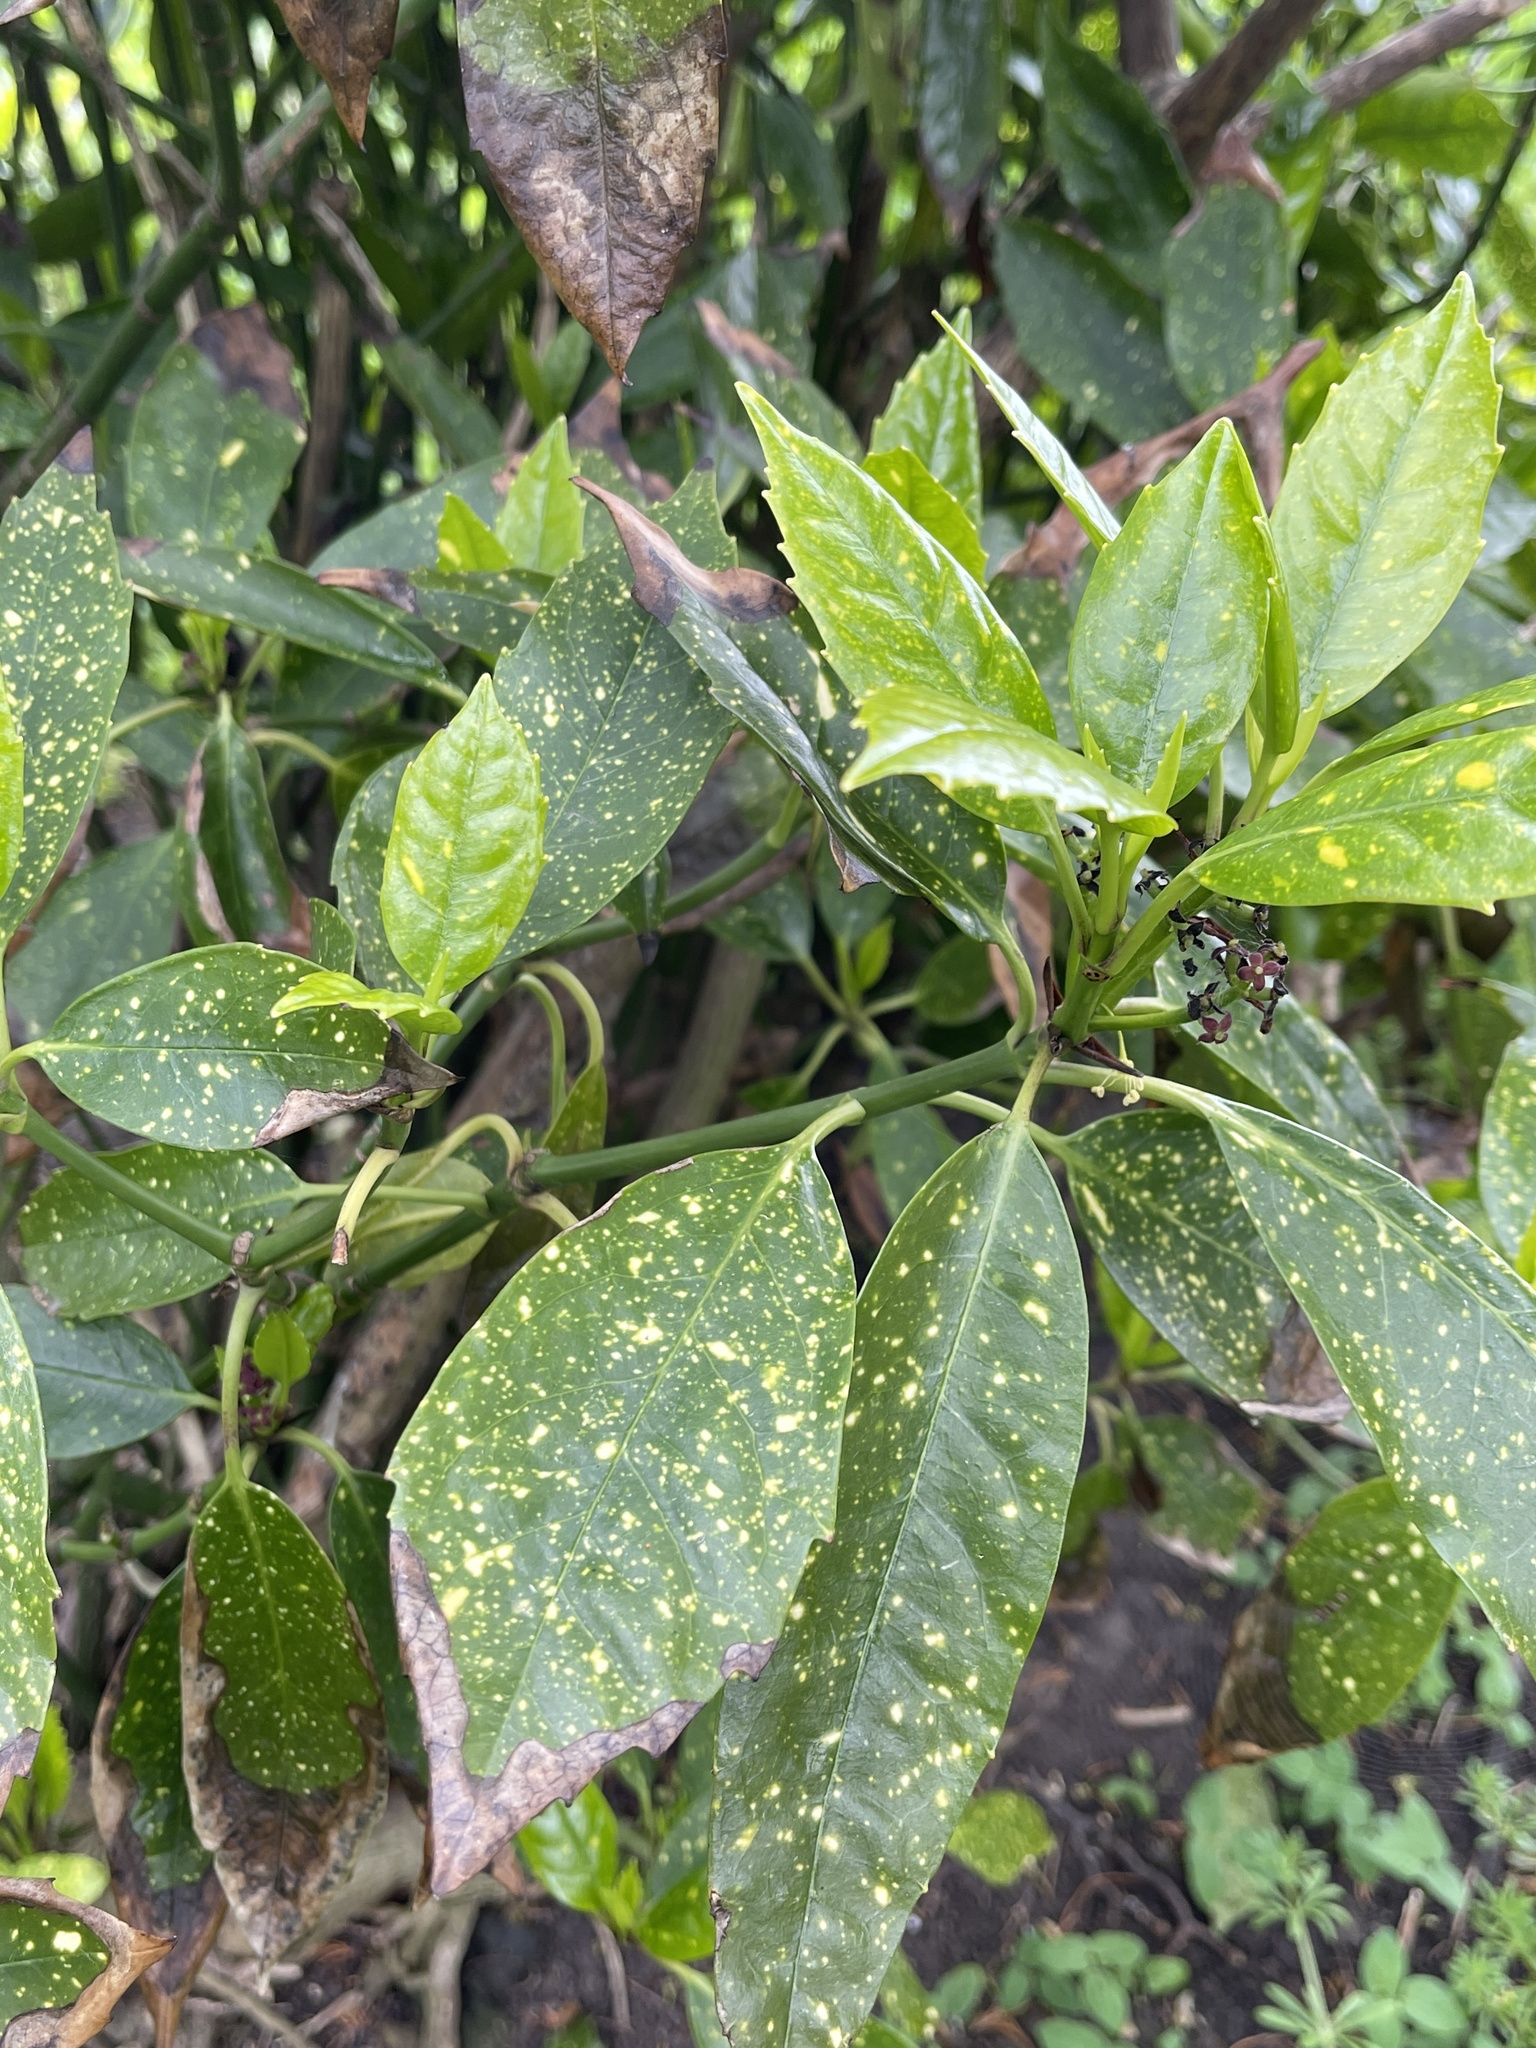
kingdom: Plantae
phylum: Tracheophyta
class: Magnoliopsida
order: Garryales
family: Garryaceae
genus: Aucuba
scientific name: Aucuba japonica
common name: Spotted-laurel
